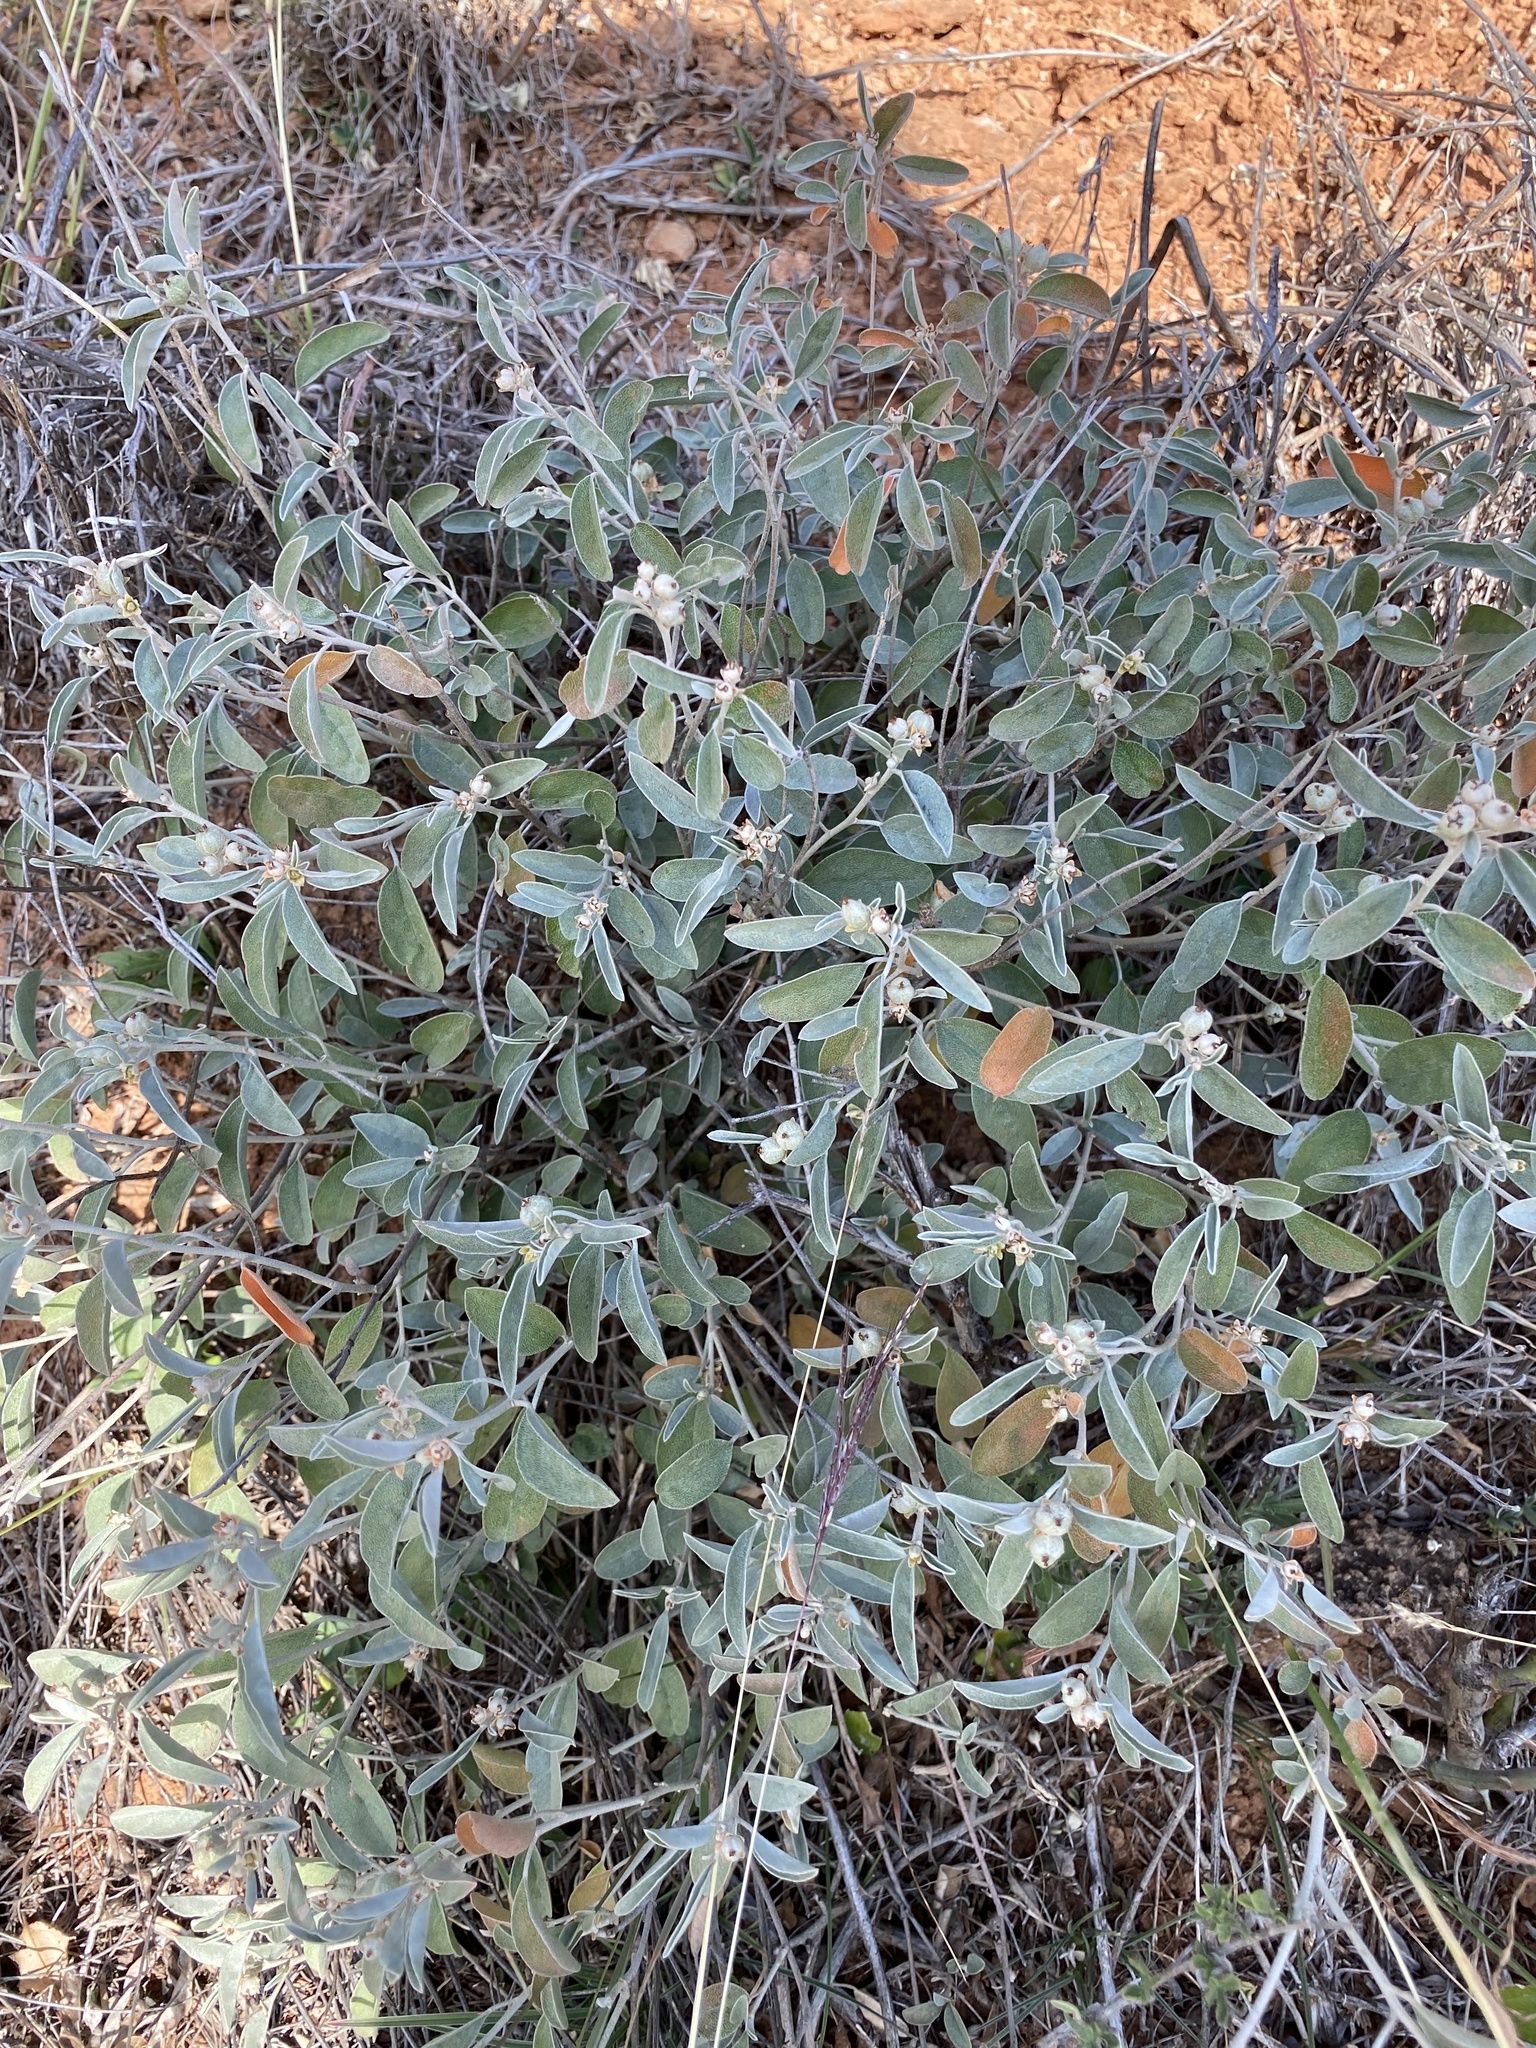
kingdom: Plantae
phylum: Tracheophyta
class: Magnoliopsida
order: Malpighiales
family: Euphorbiaceae
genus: Croton
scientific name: Croton dioicus
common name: Grassland croton
